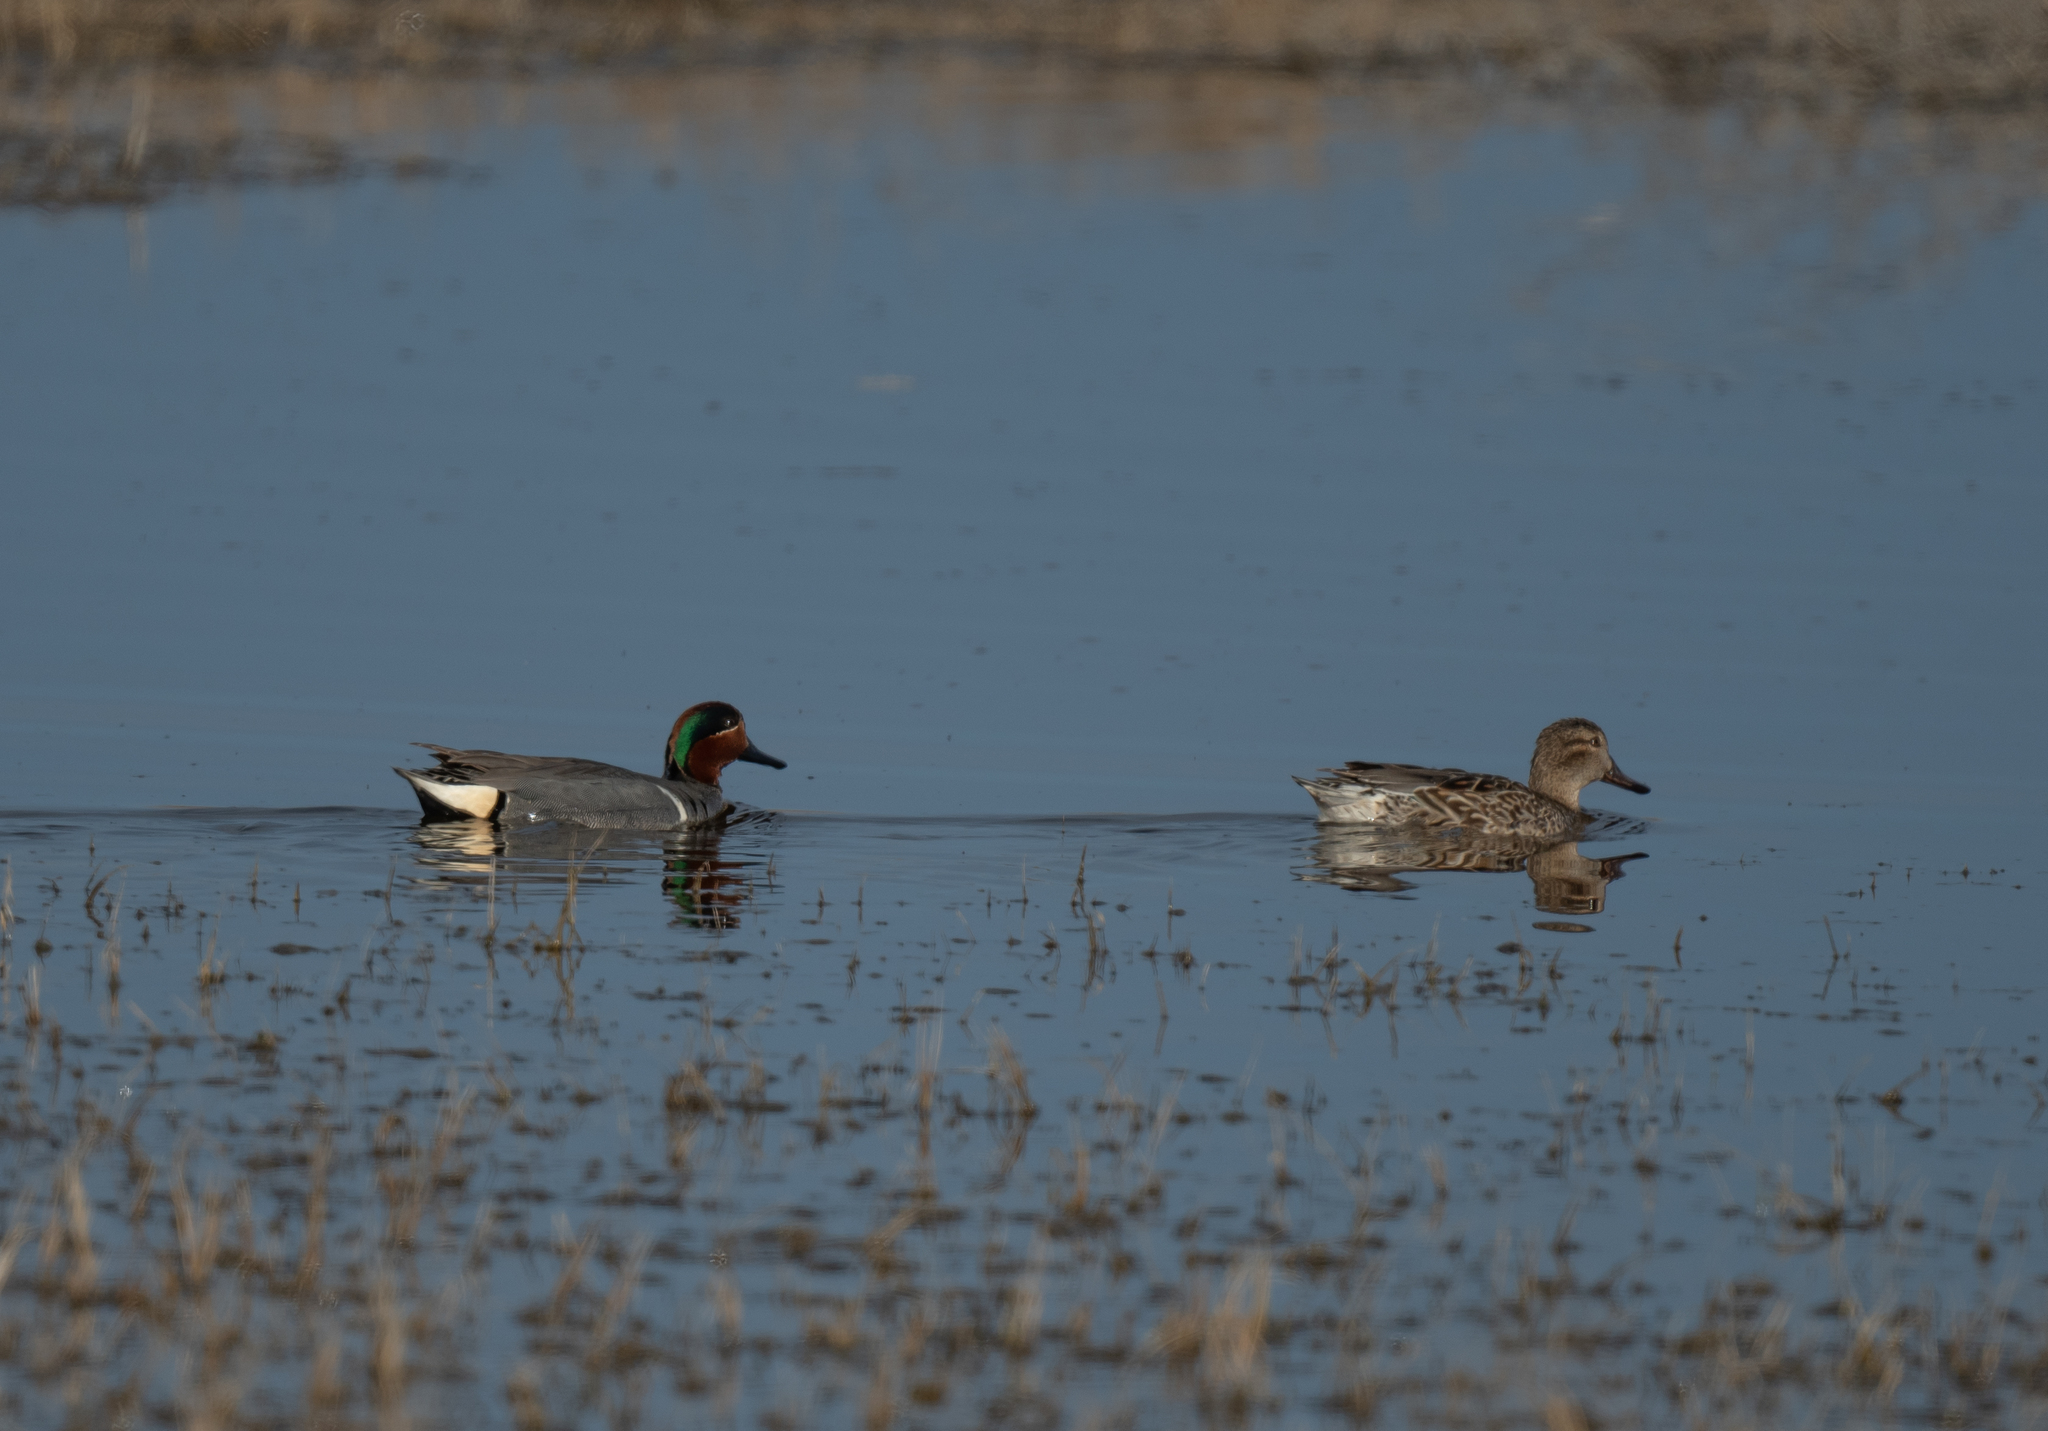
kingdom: Animalia
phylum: Chordata
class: Aves
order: Anseriformes
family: Anatidae
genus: Anas
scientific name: Anas crecca
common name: Eurasian teal
